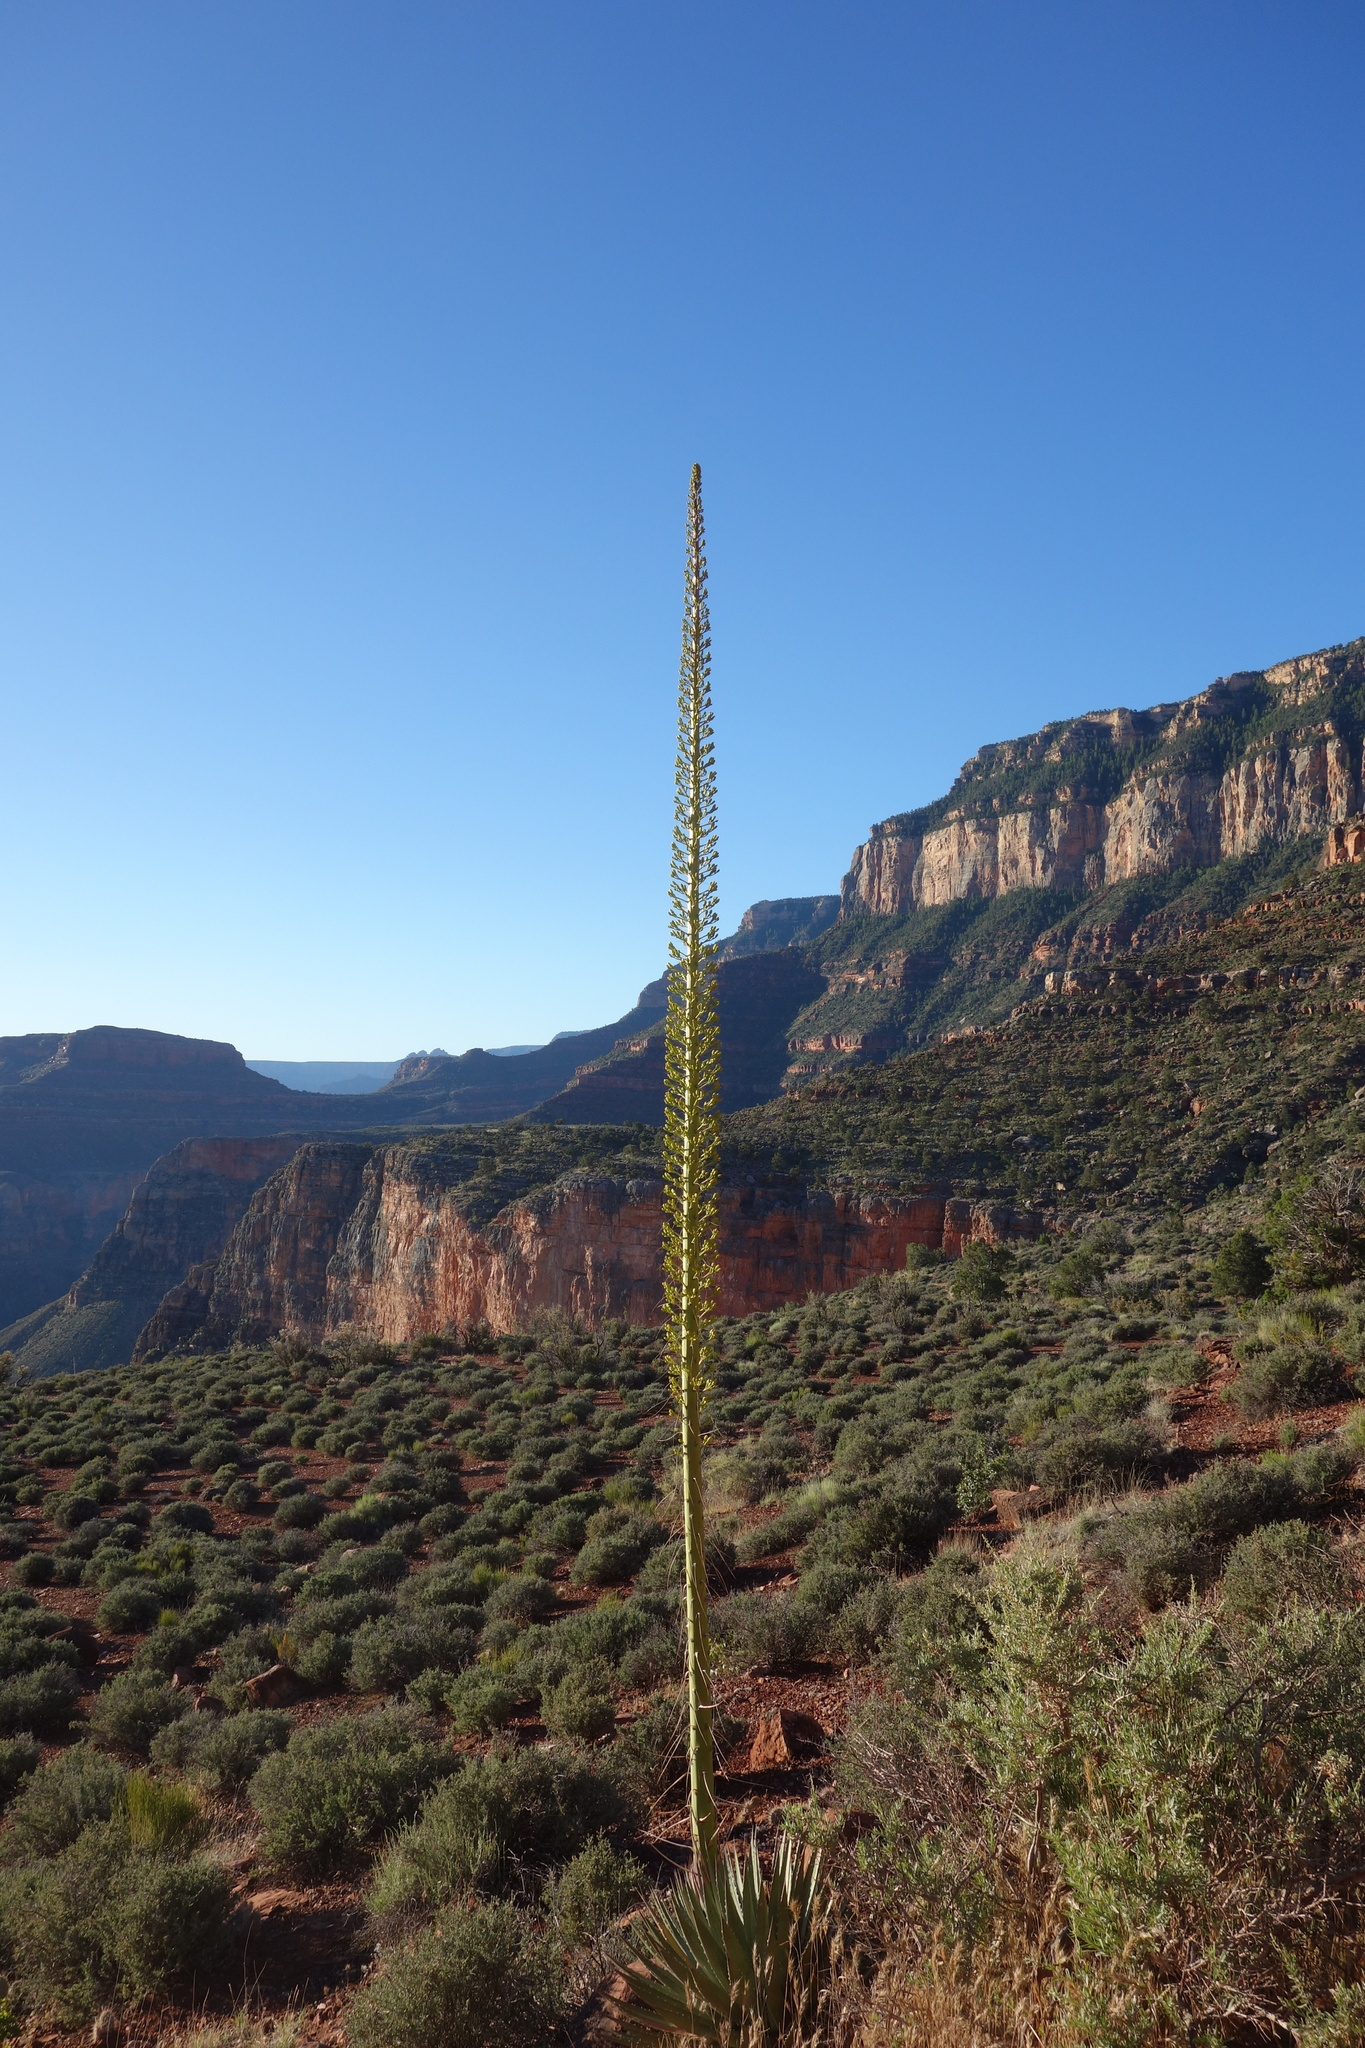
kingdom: Plantae
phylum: Tracheophyta
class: Liliopsida
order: Asparagales
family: Asparagaceae
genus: Agave
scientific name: Agave utahensis
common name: Utah agave
